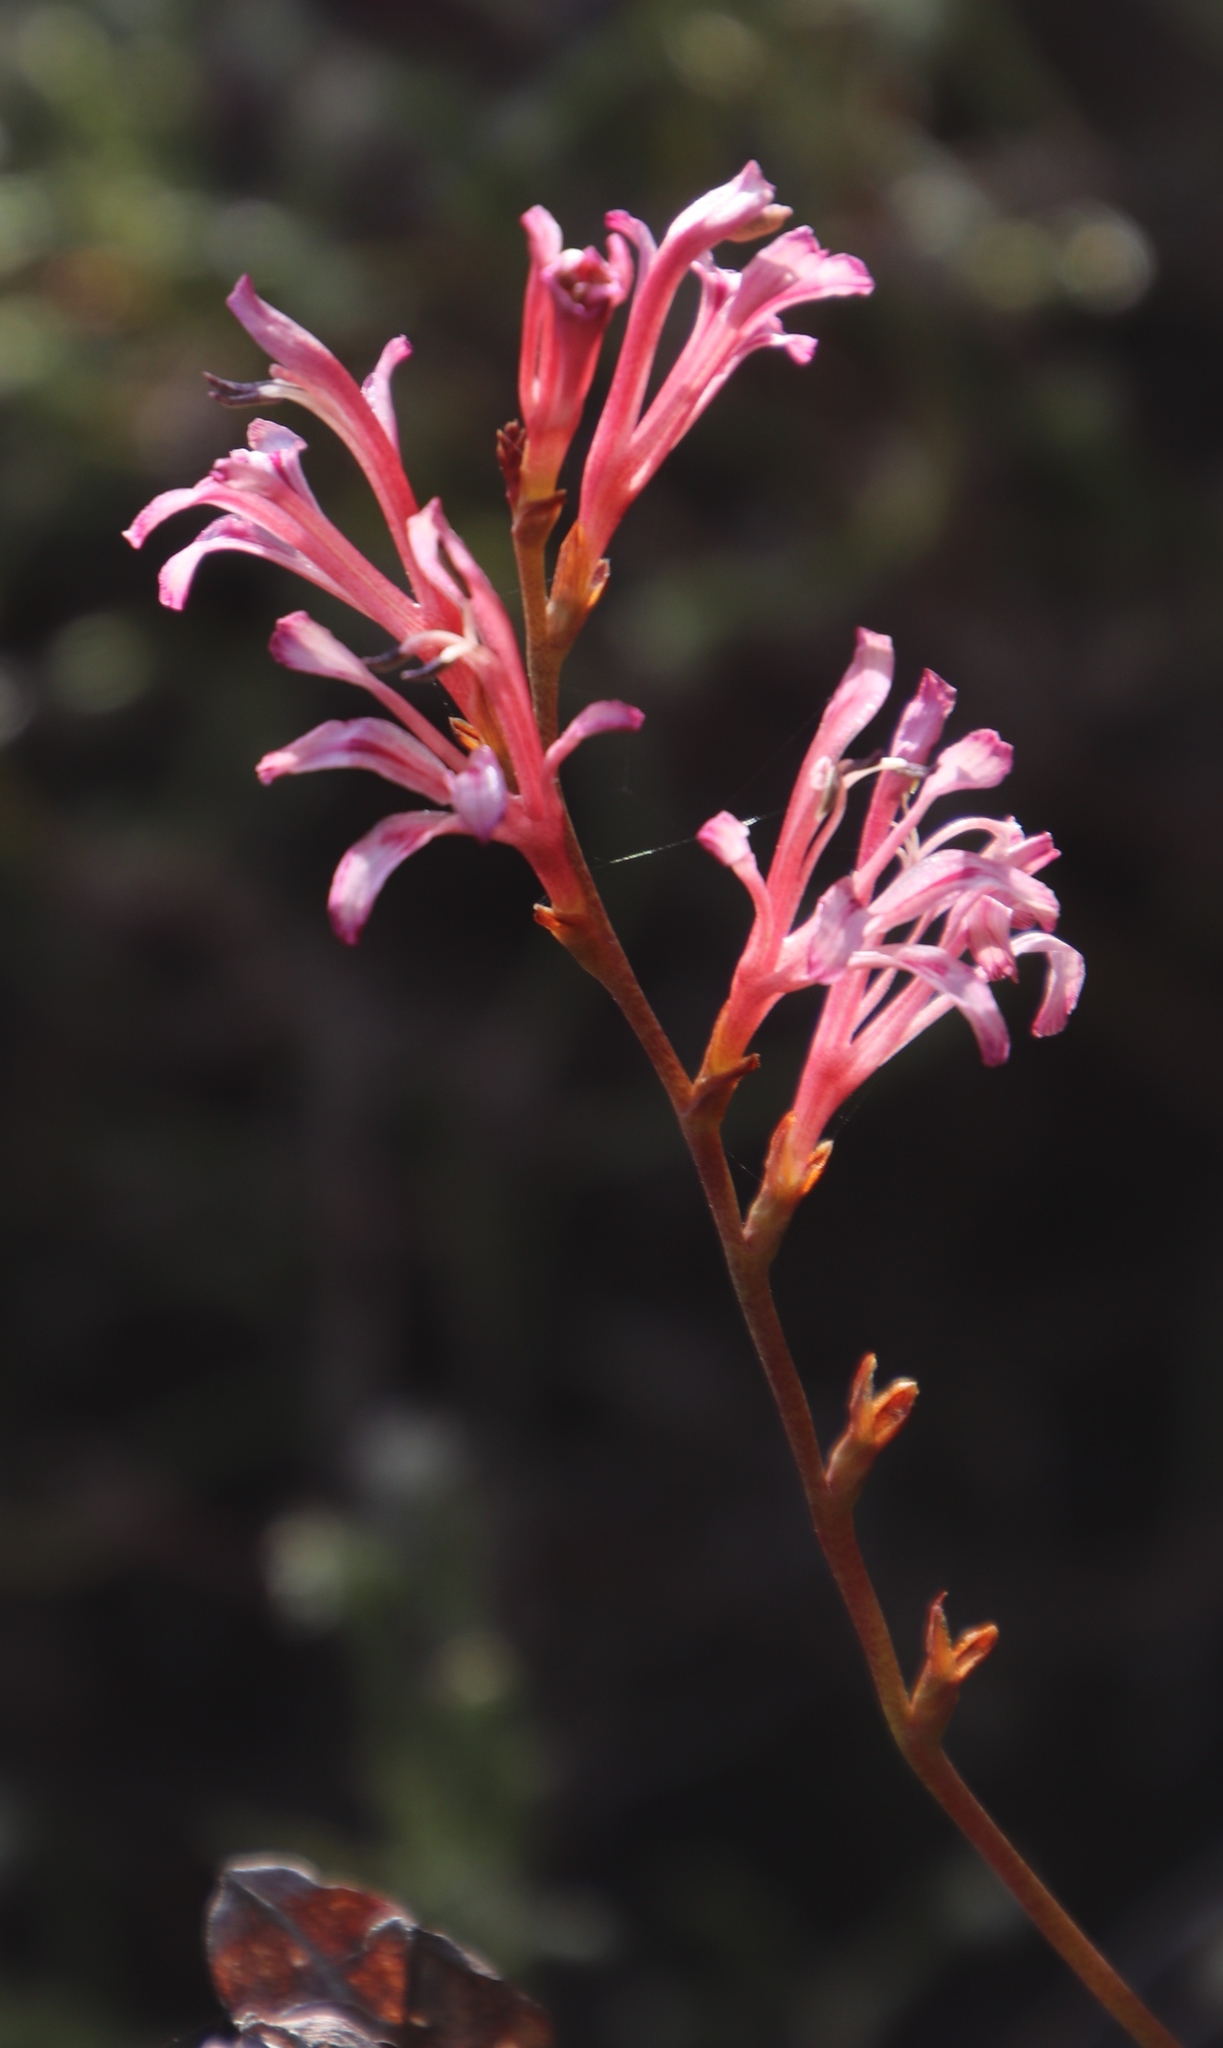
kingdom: Plantae
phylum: Tracheophyta
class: Liliopsida
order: Asparagales
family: Iridaceae
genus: Tritoniopsis
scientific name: Tritoniopsis dodii
